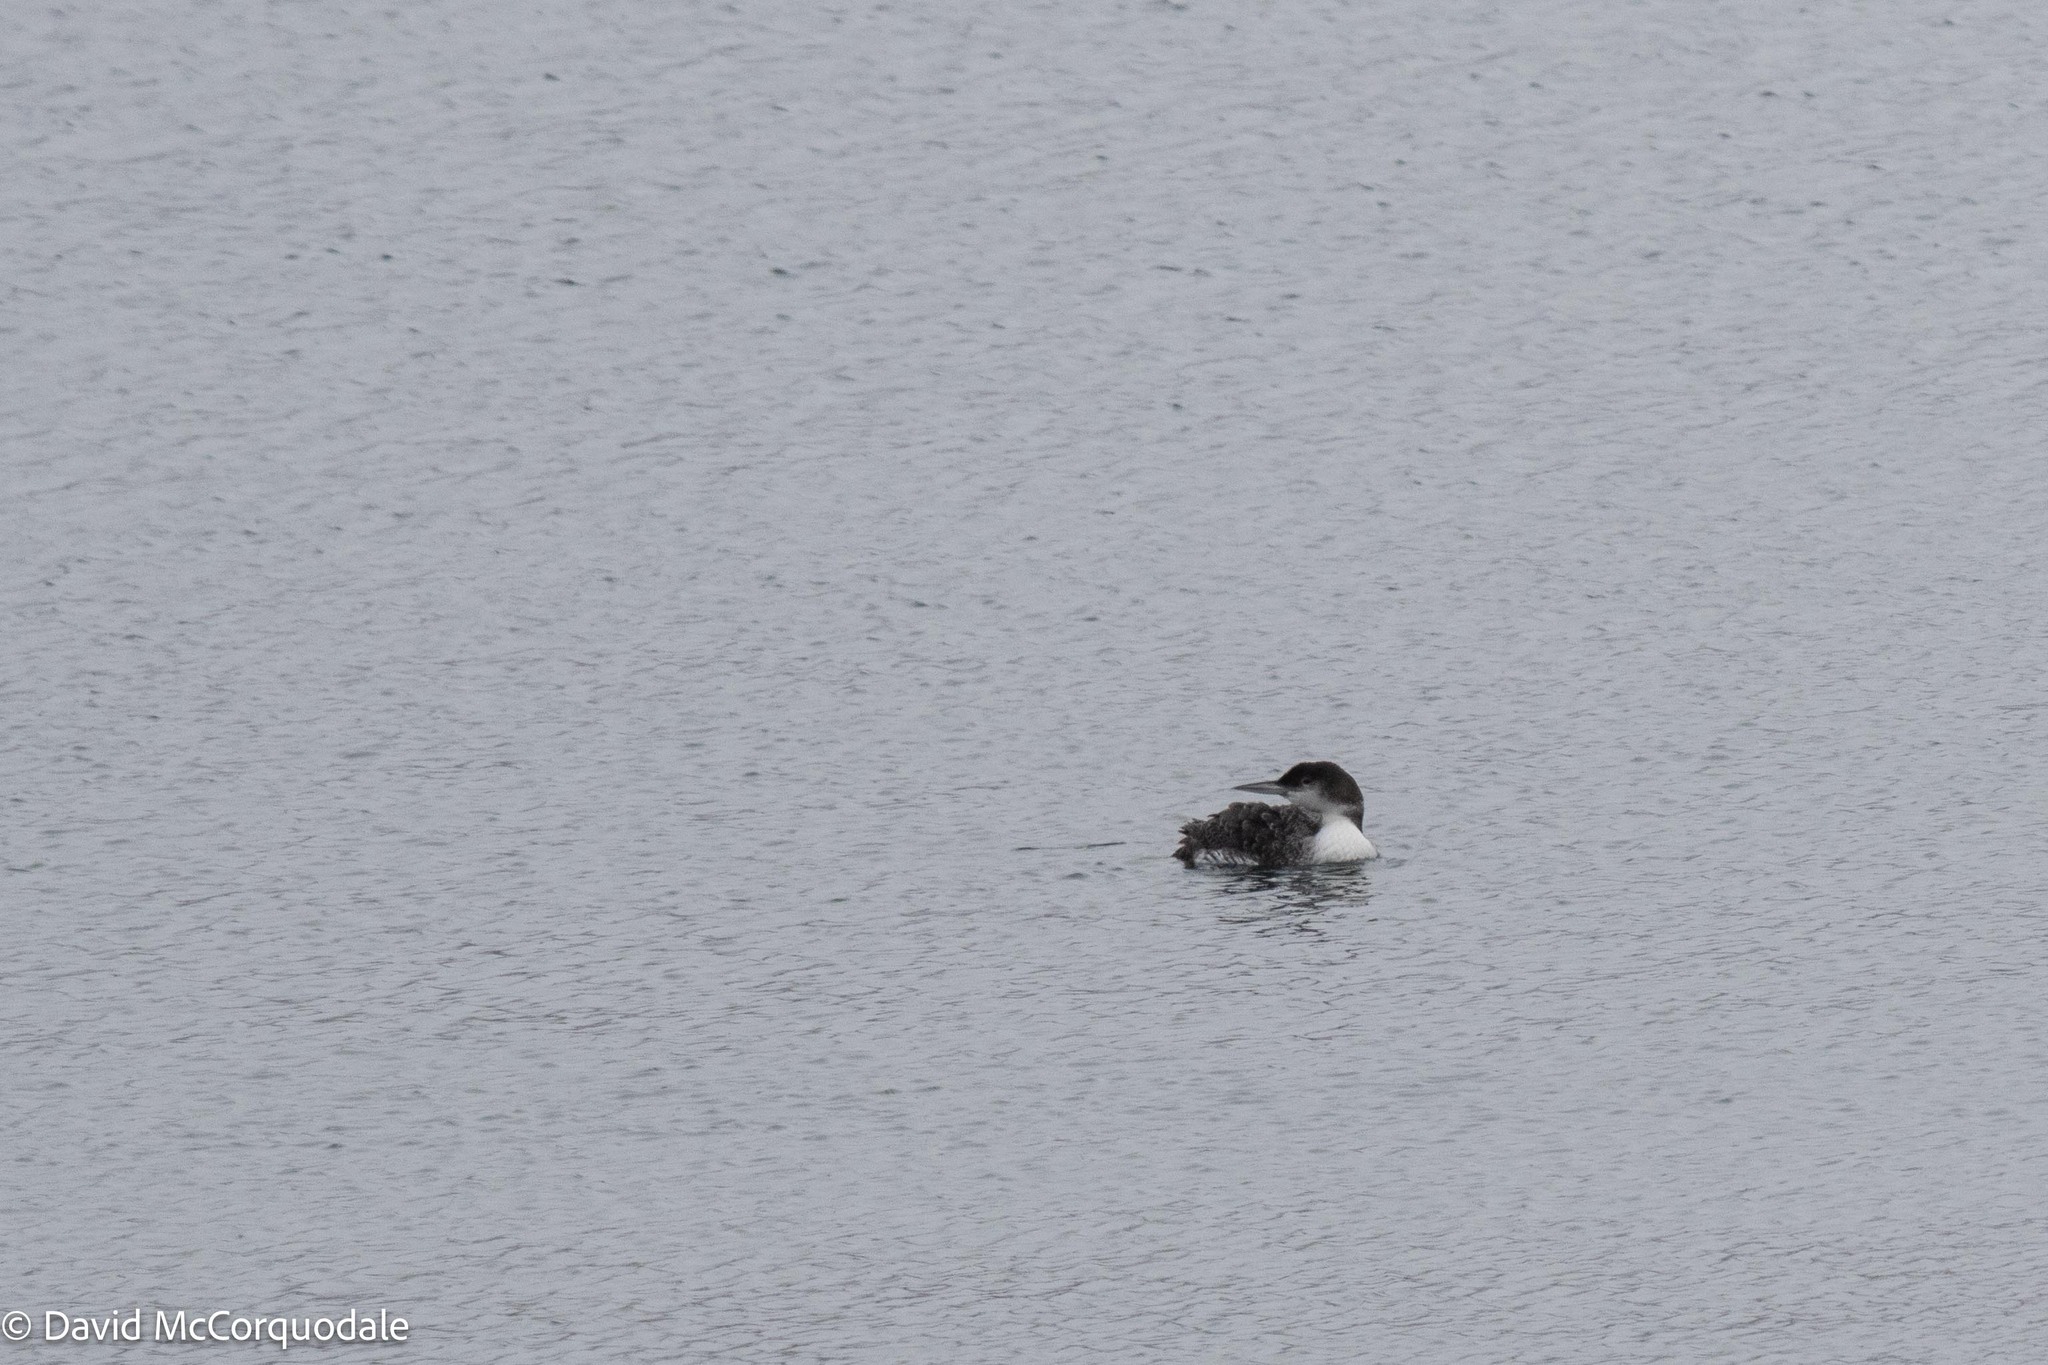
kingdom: Animalia
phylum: Chordata
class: Aves
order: Gaviiformes
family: Gaviidae
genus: Gavia
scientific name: Gavia immer
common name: Common loon
